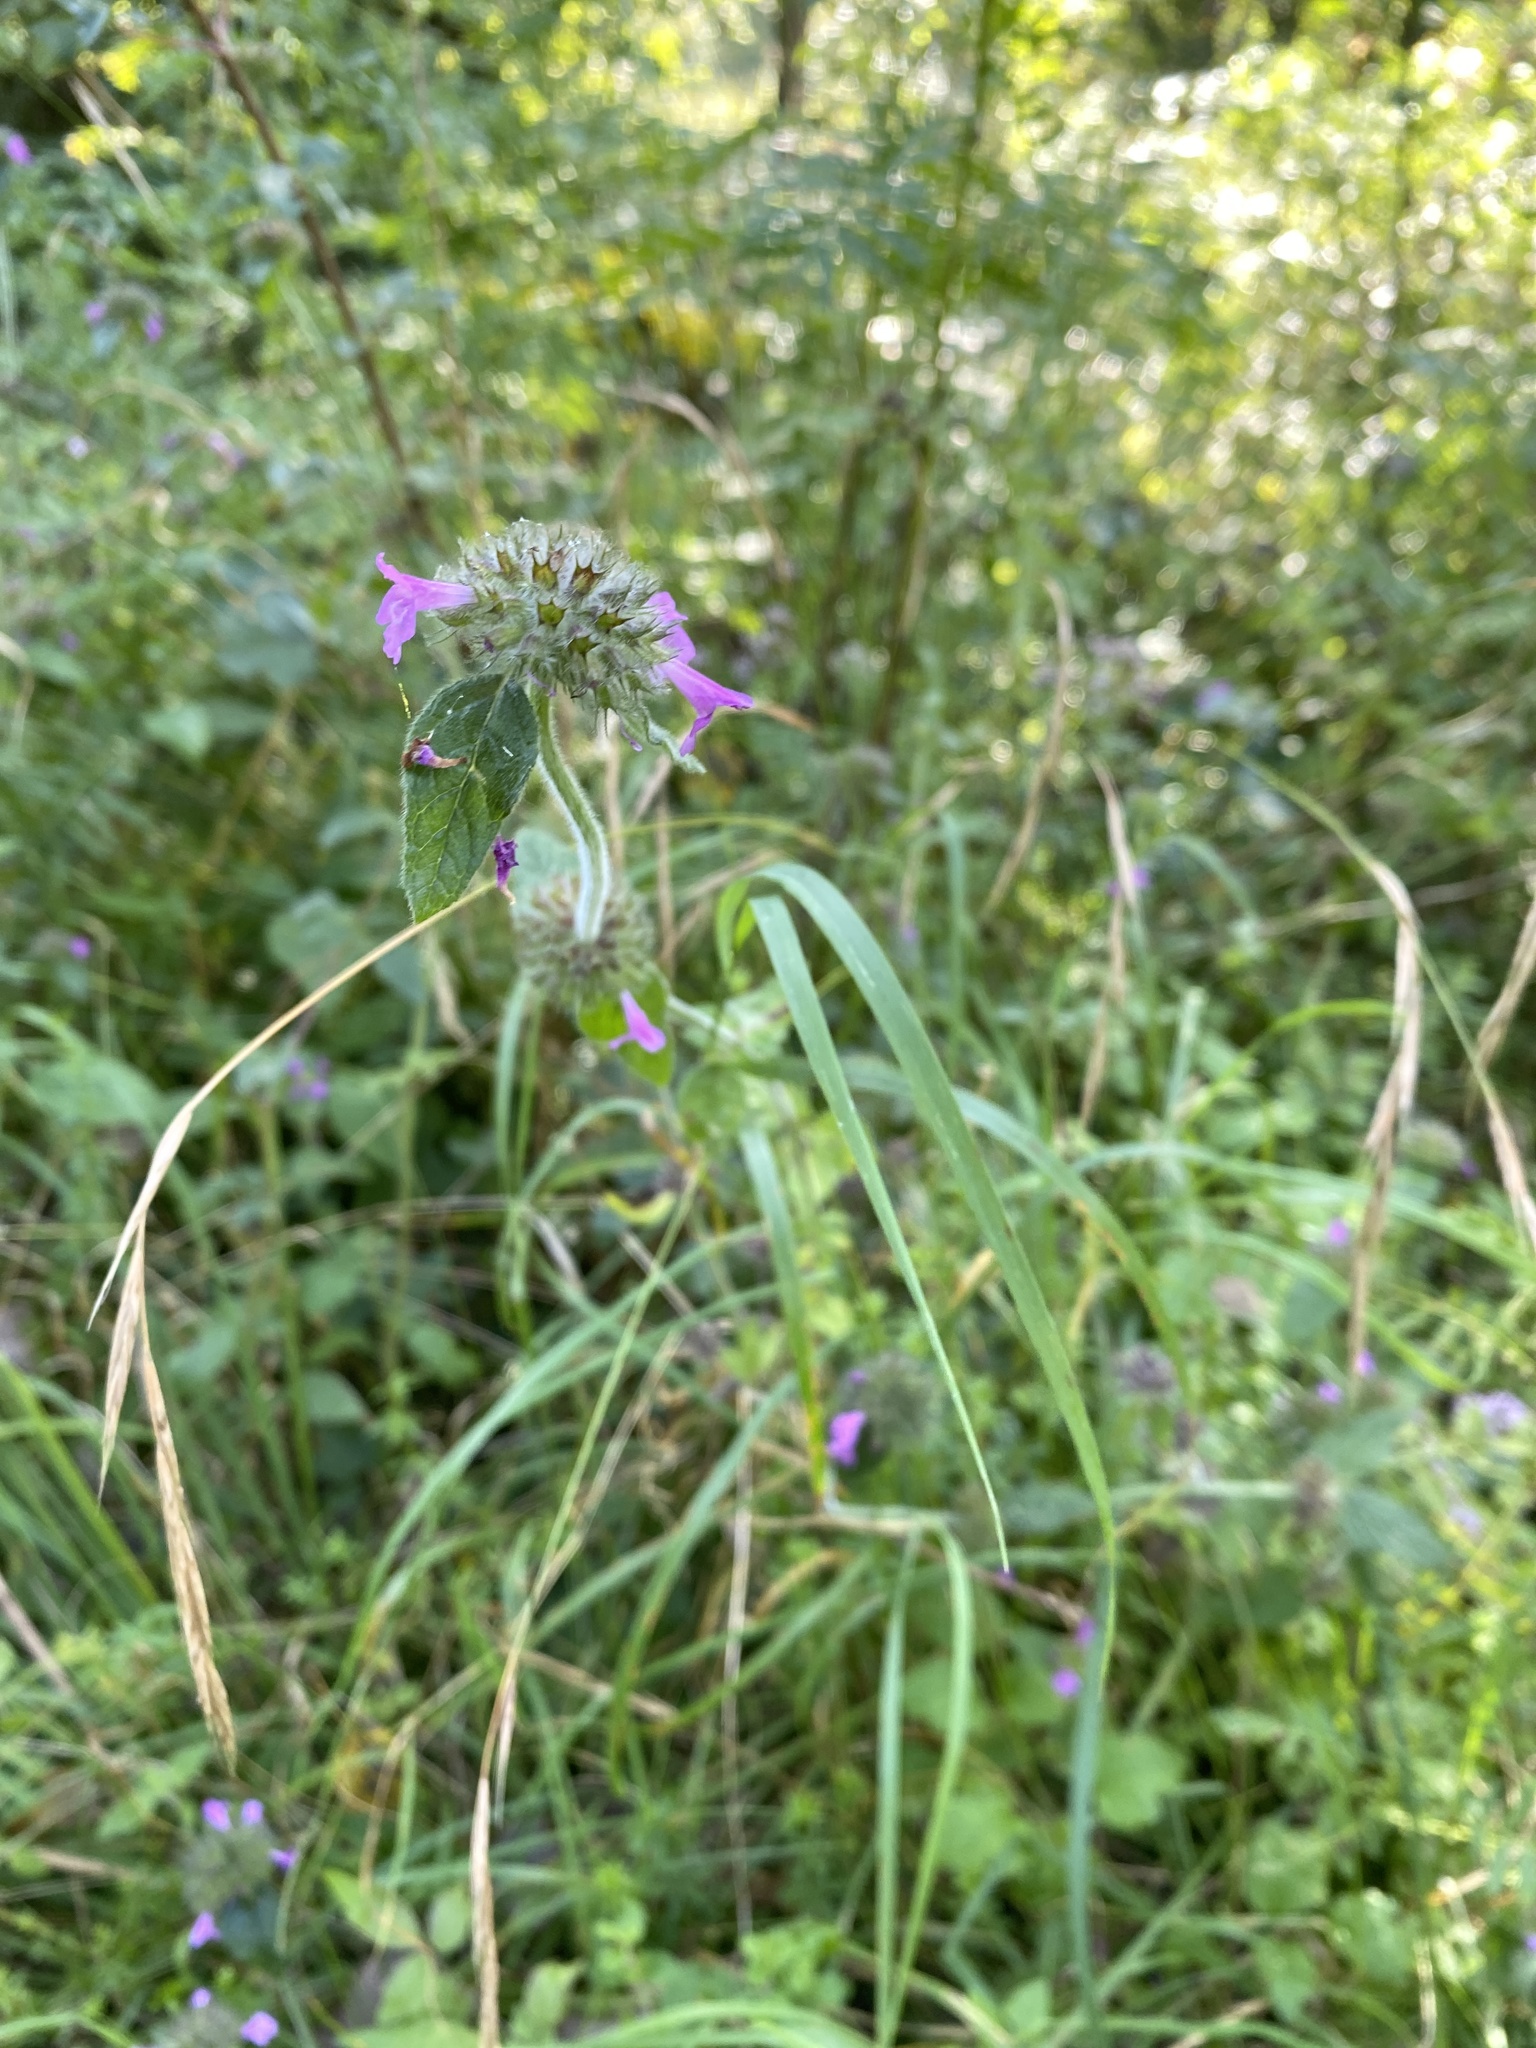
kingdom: Plantae
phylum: Tracheophyta
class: Magnoliopsida
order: Lamiales
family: Lamiaceae
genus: Clinopodium
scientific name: Clinopodium vulgare
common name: Wild basil
